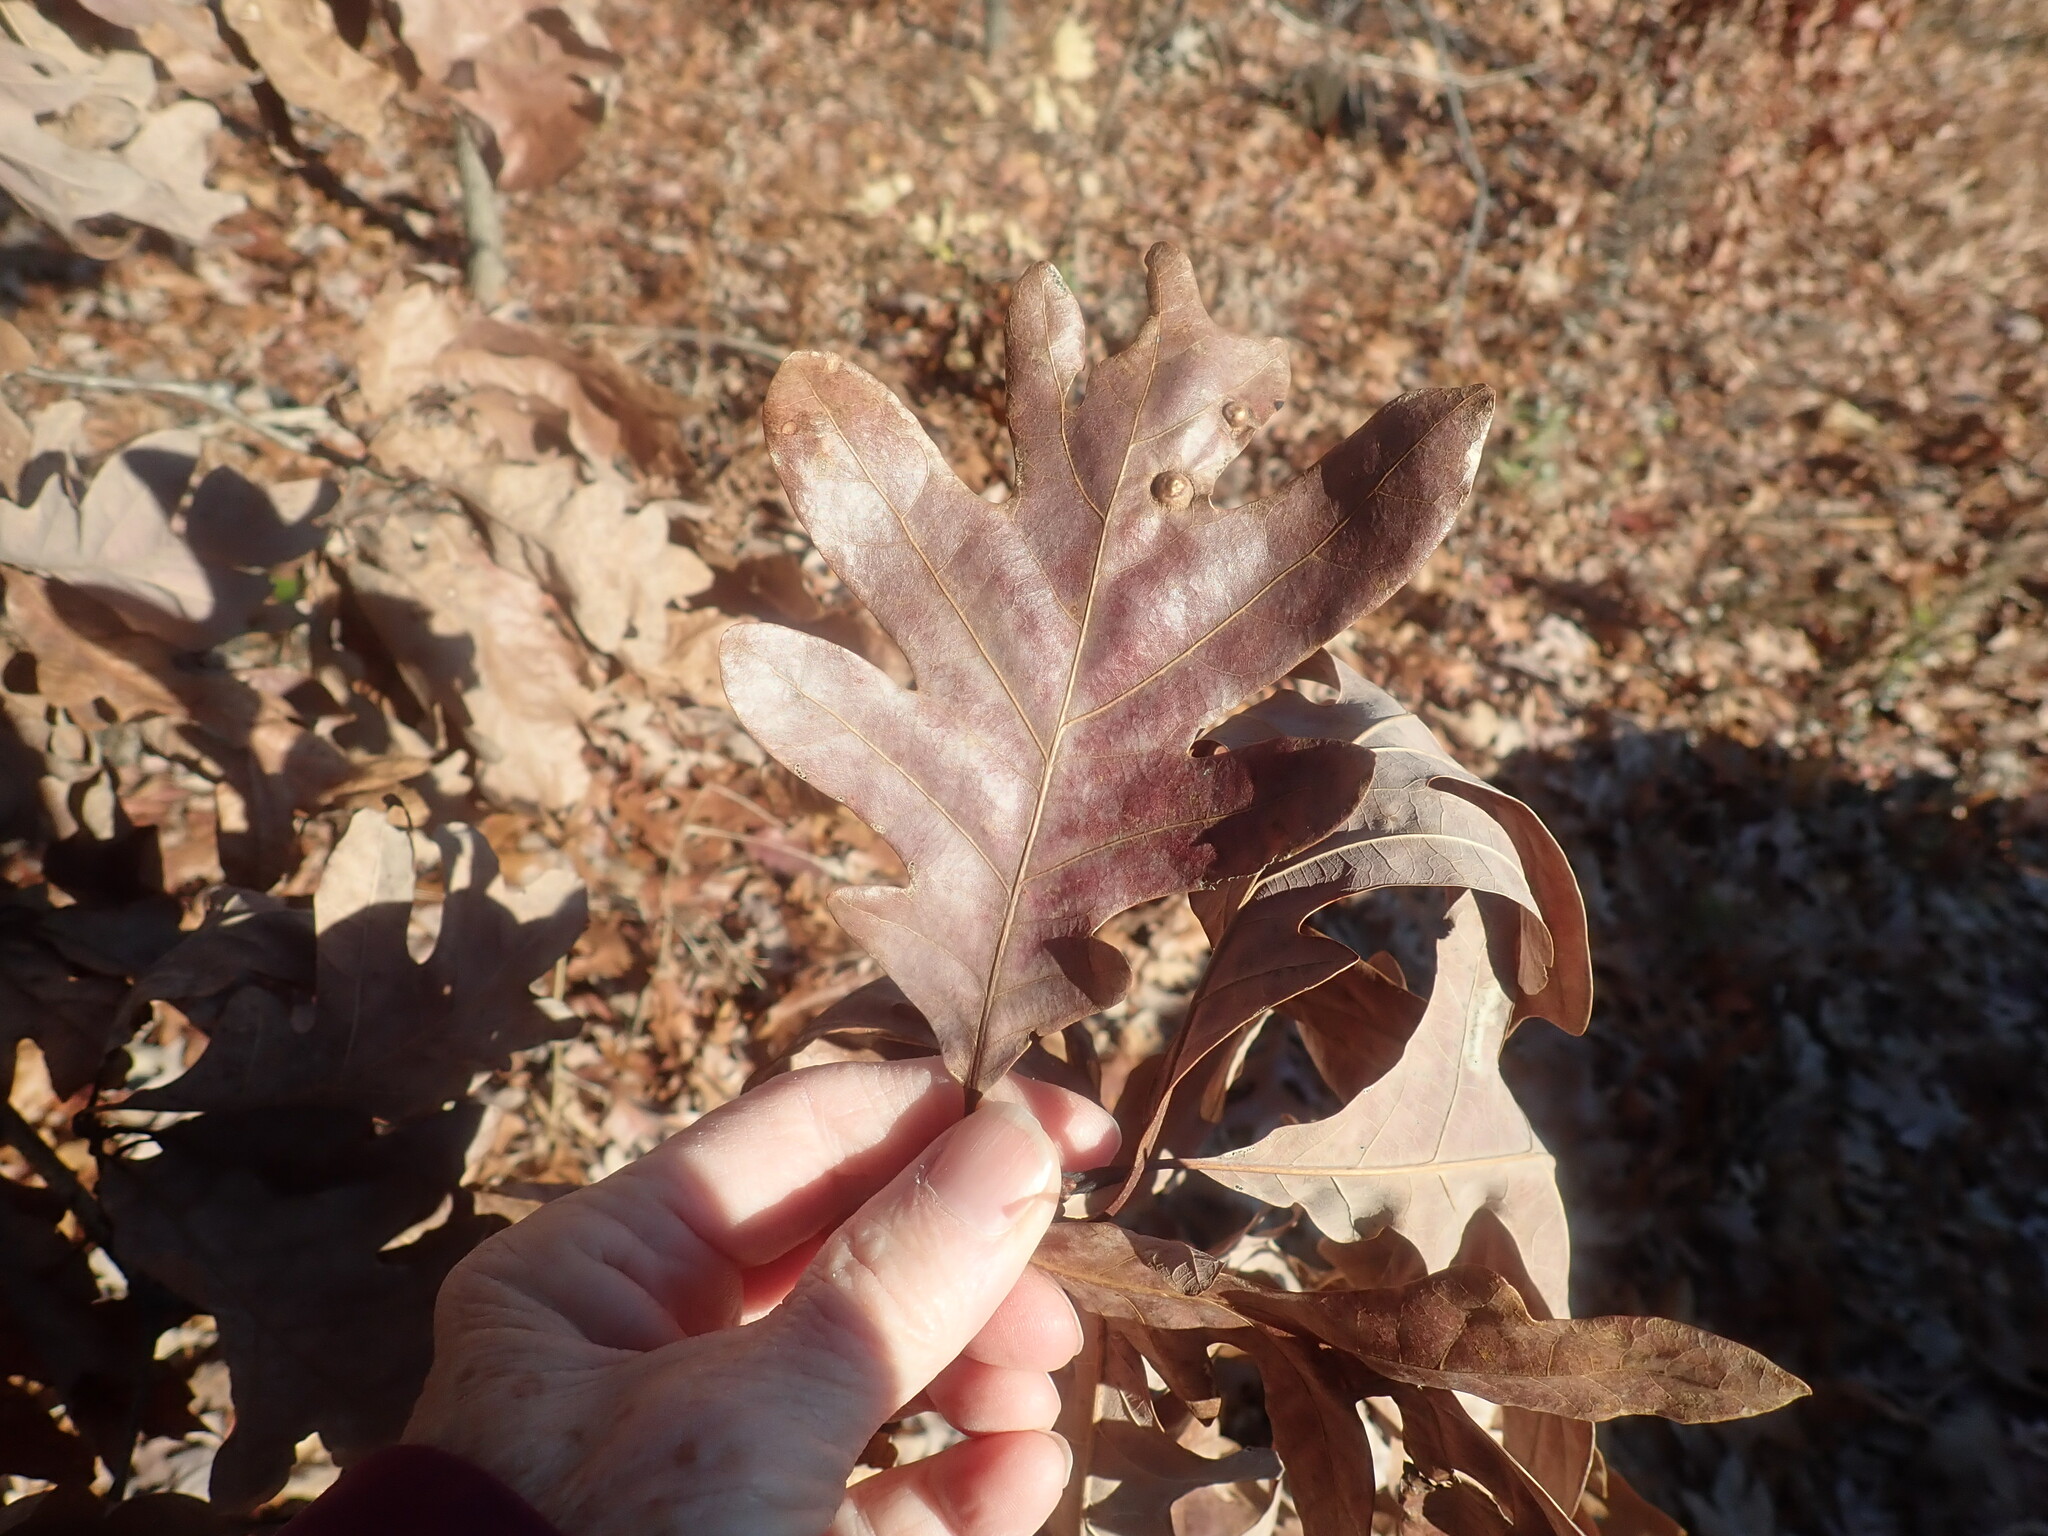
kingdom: Plantae
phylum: Tracheophyta
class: Magnoliopsida
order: Fagales
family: Fagaceae
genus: Quercus
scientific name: Quercus alba
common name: White oak
